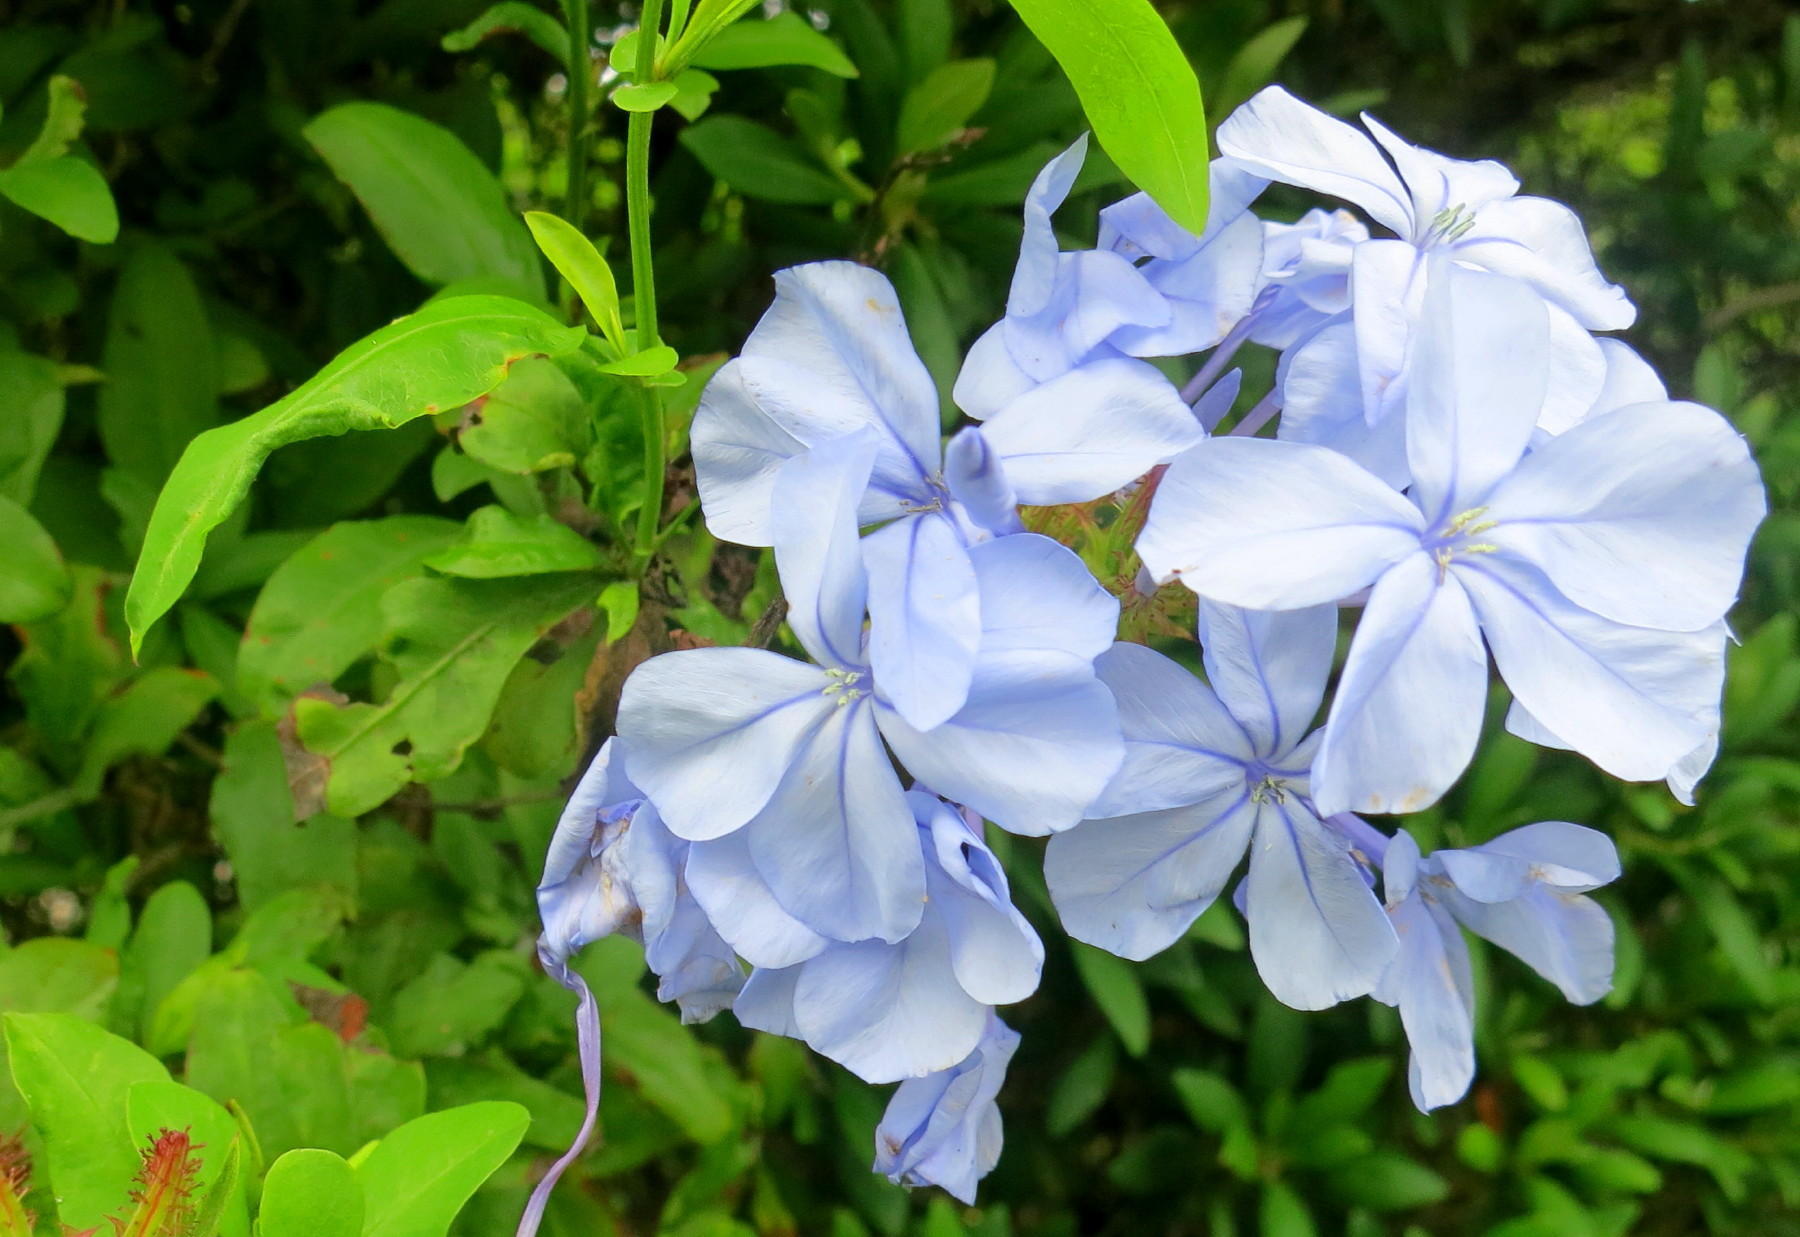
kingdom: Plantae
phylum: Tracheophyta
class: Magnoliopsida
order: Caryophyllales
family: Plumbaginaceae
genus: Plumbago
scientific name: Plumbago auriculata
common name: Cape leadwort
